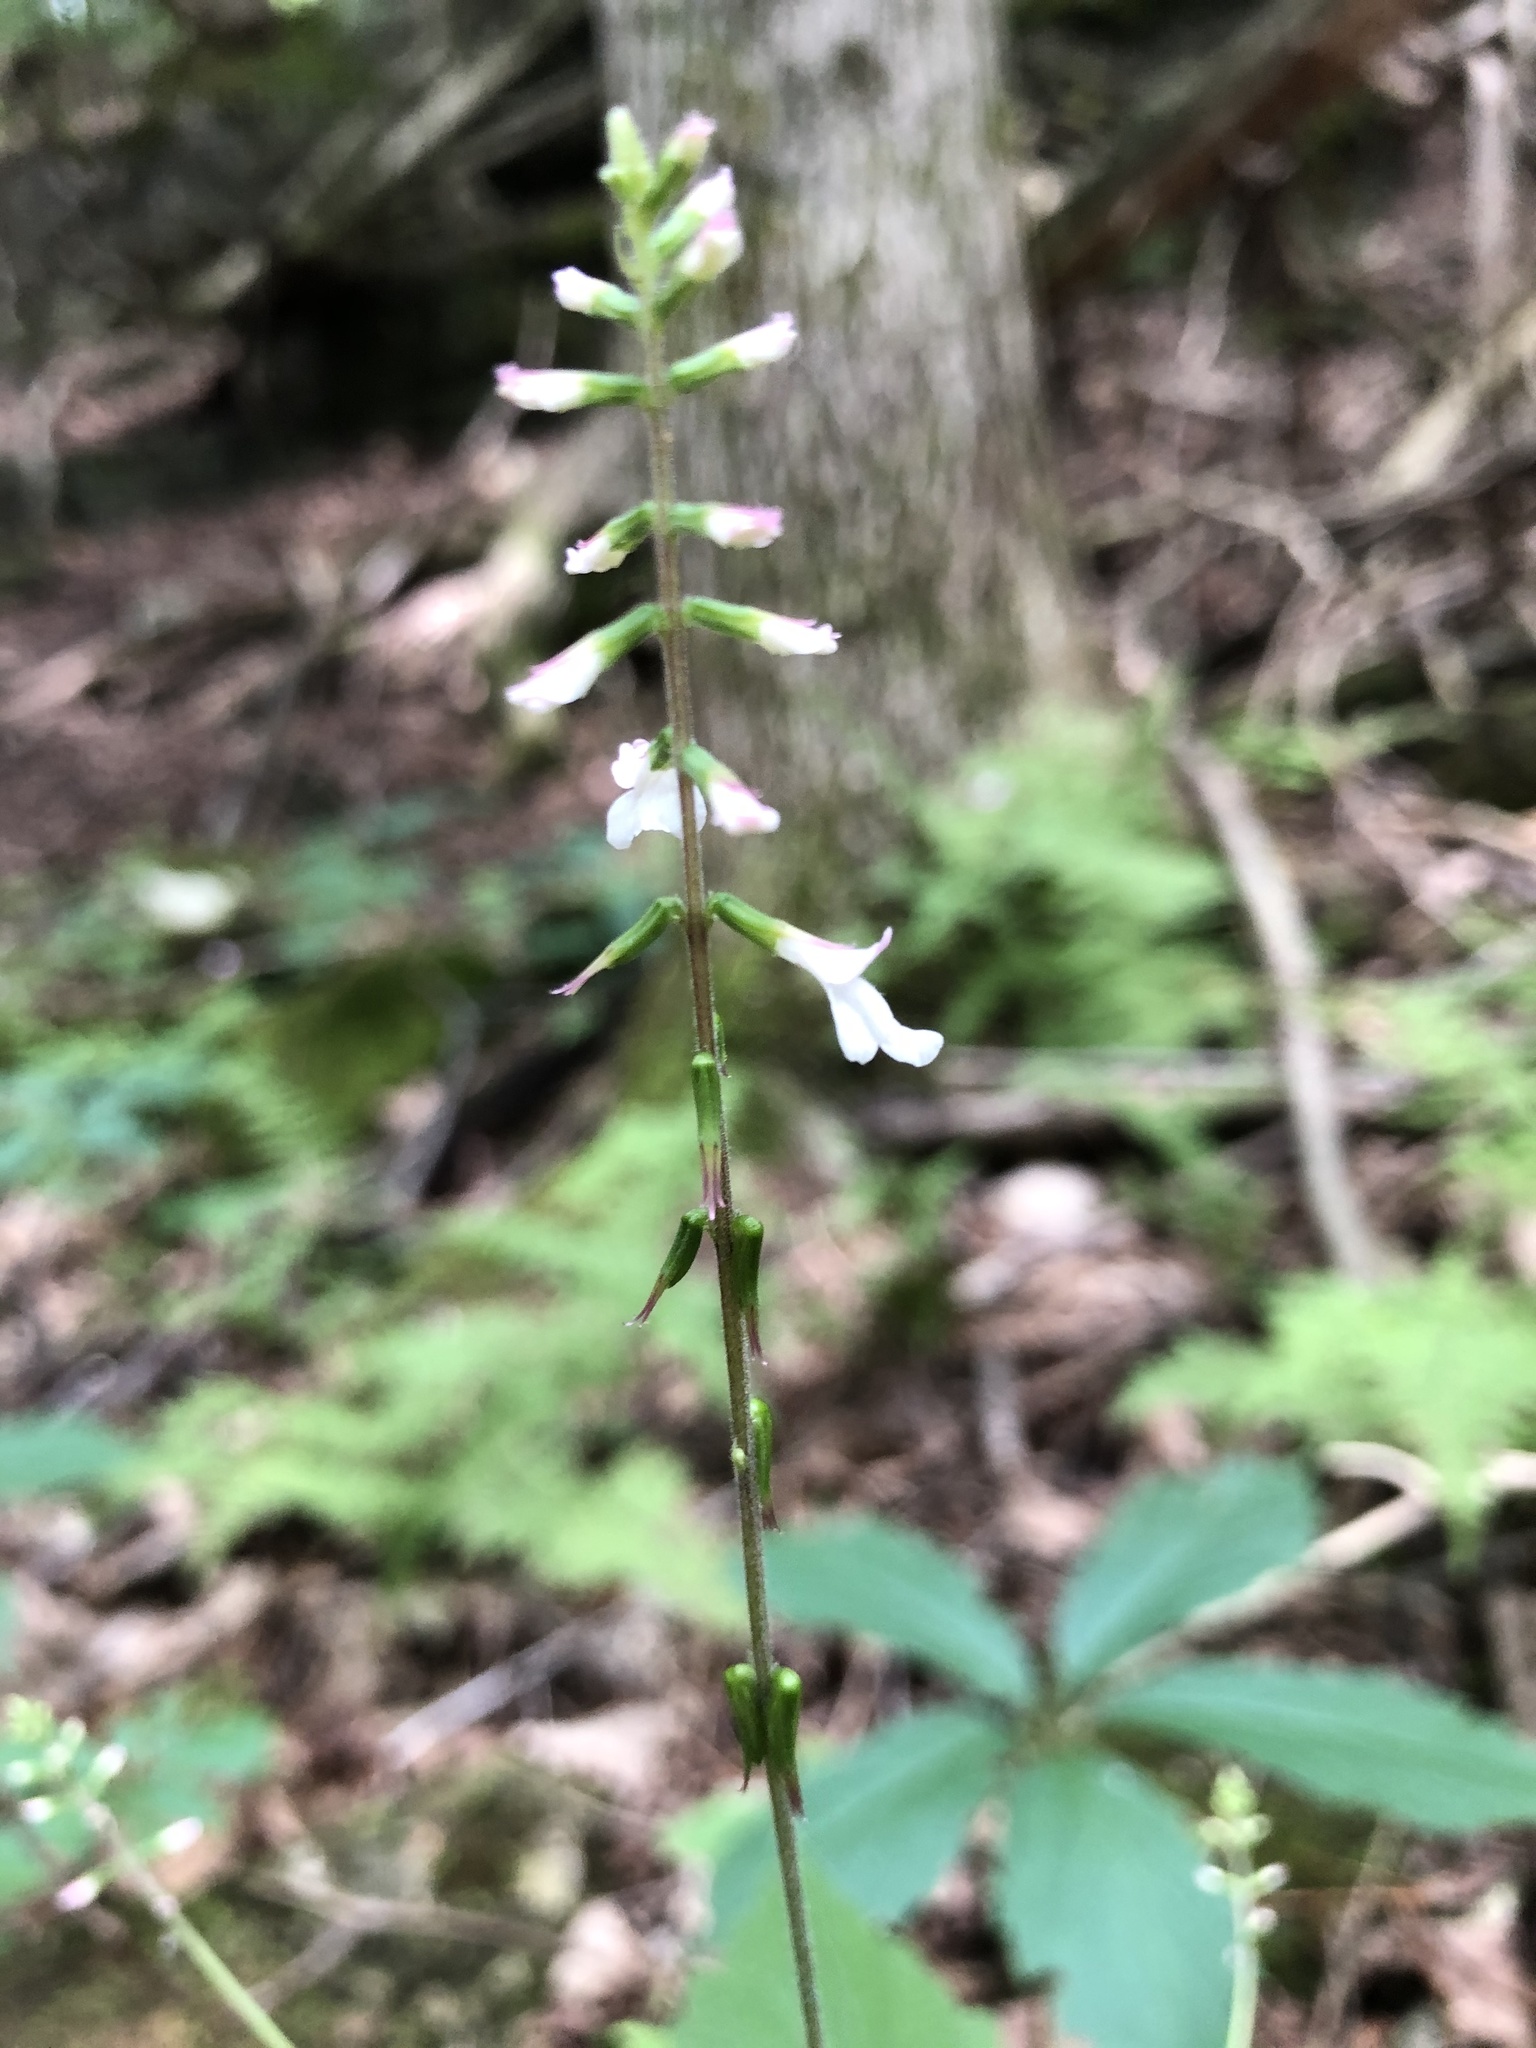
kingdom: Plantae
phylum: Tracheophyta
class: Magnoliopsida
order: Lamiales
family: Phrymaceae
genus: Phryma
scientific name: Phryma leptostachya
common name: American lopseed
